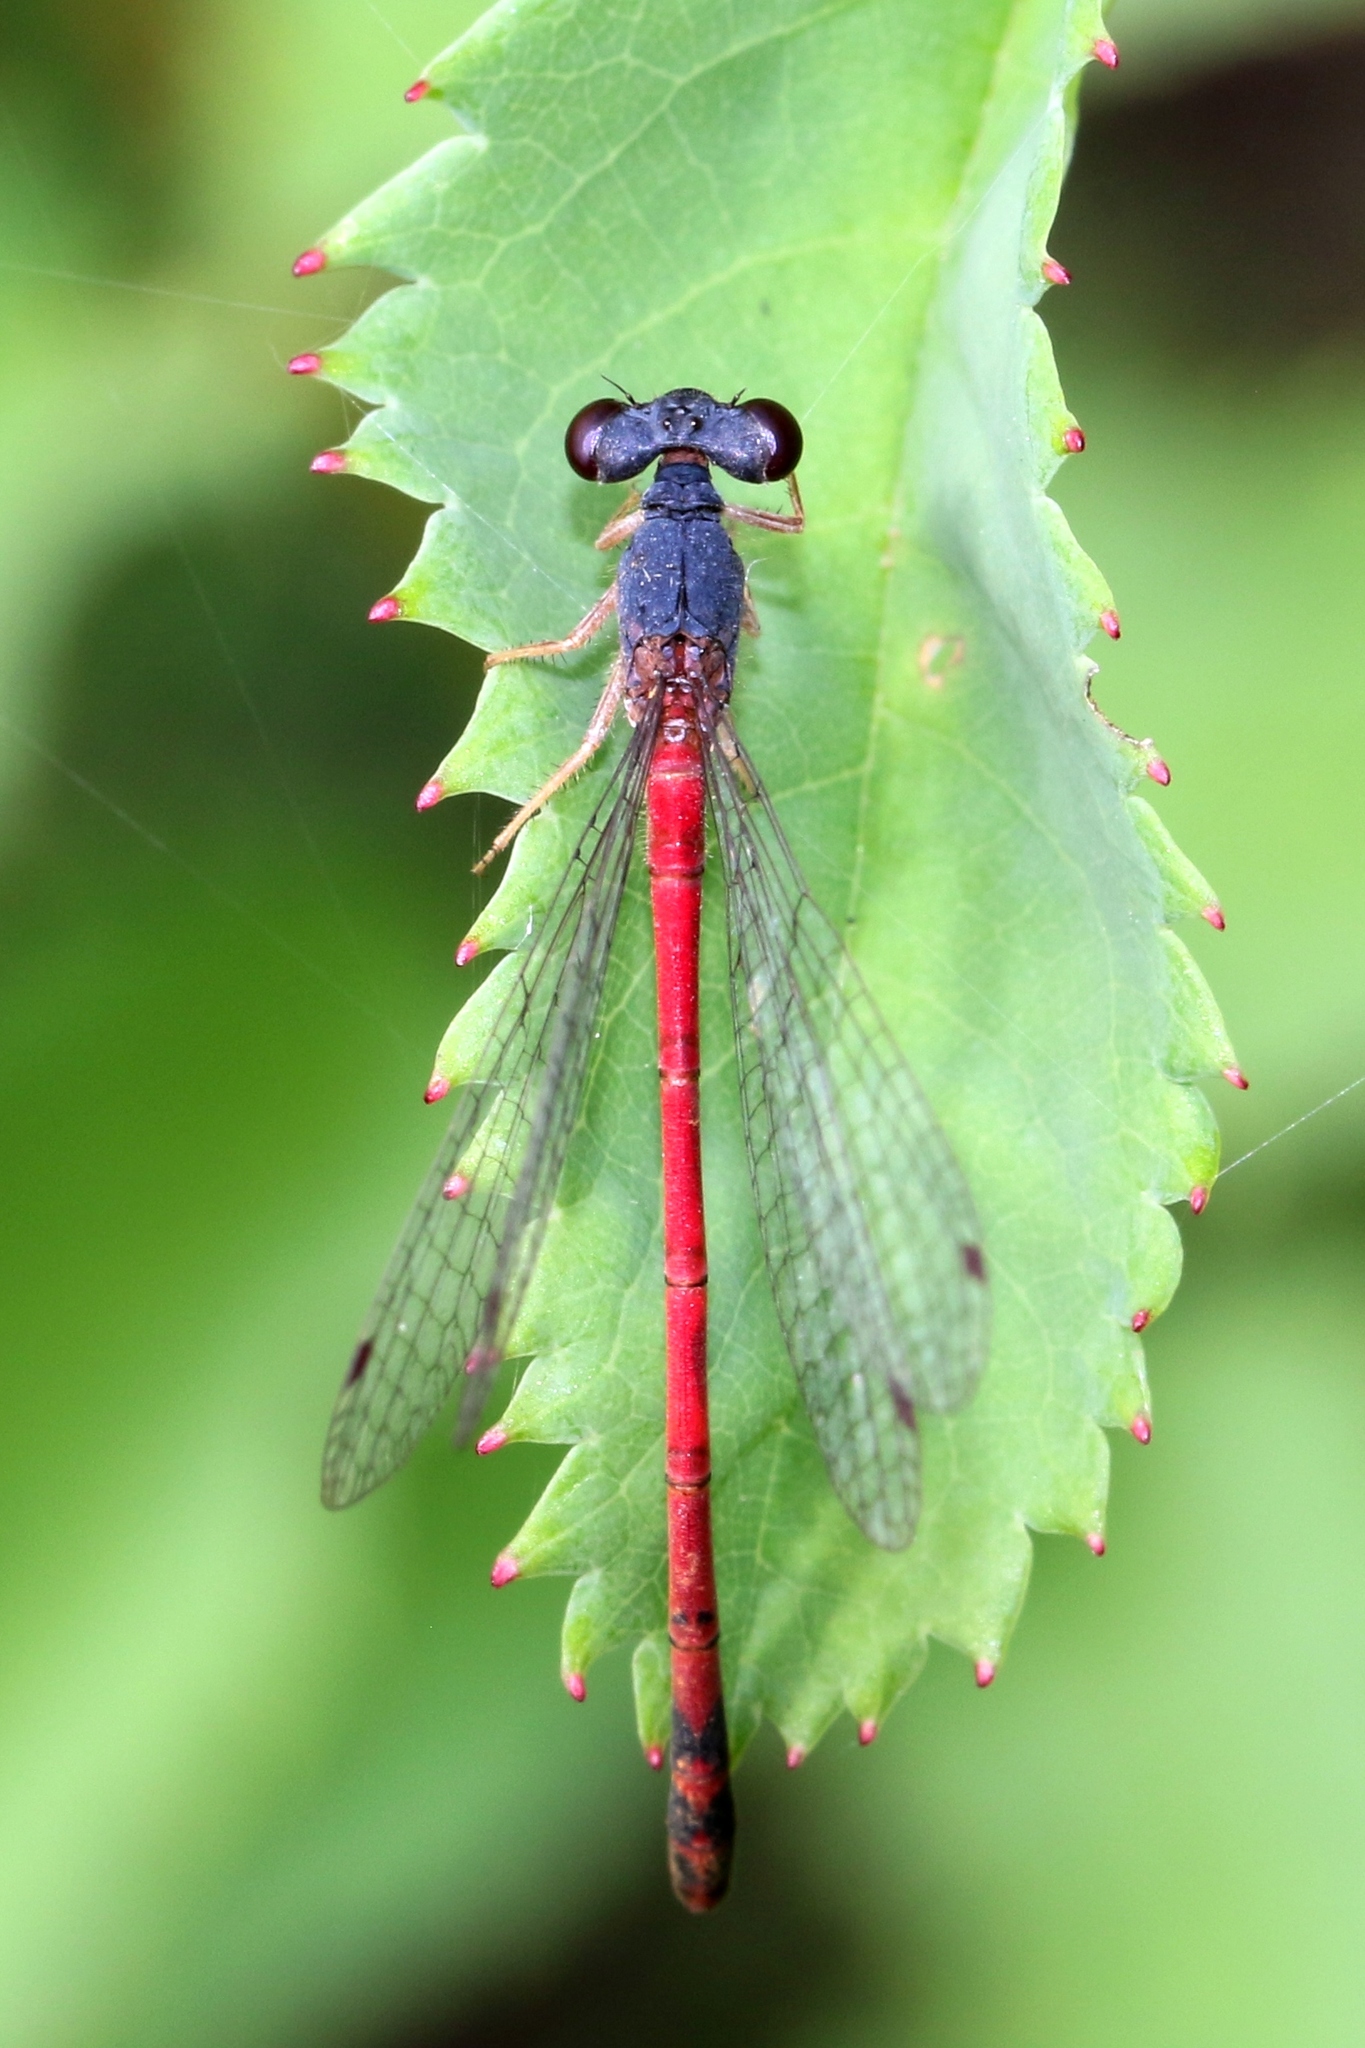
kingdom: Animalia
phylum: Arthropoda
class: Insecta
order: Odonata
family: Coenagrionidae
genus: Amphiagrion
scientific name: Amphiagrion saucium
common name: Eastern red damsel
